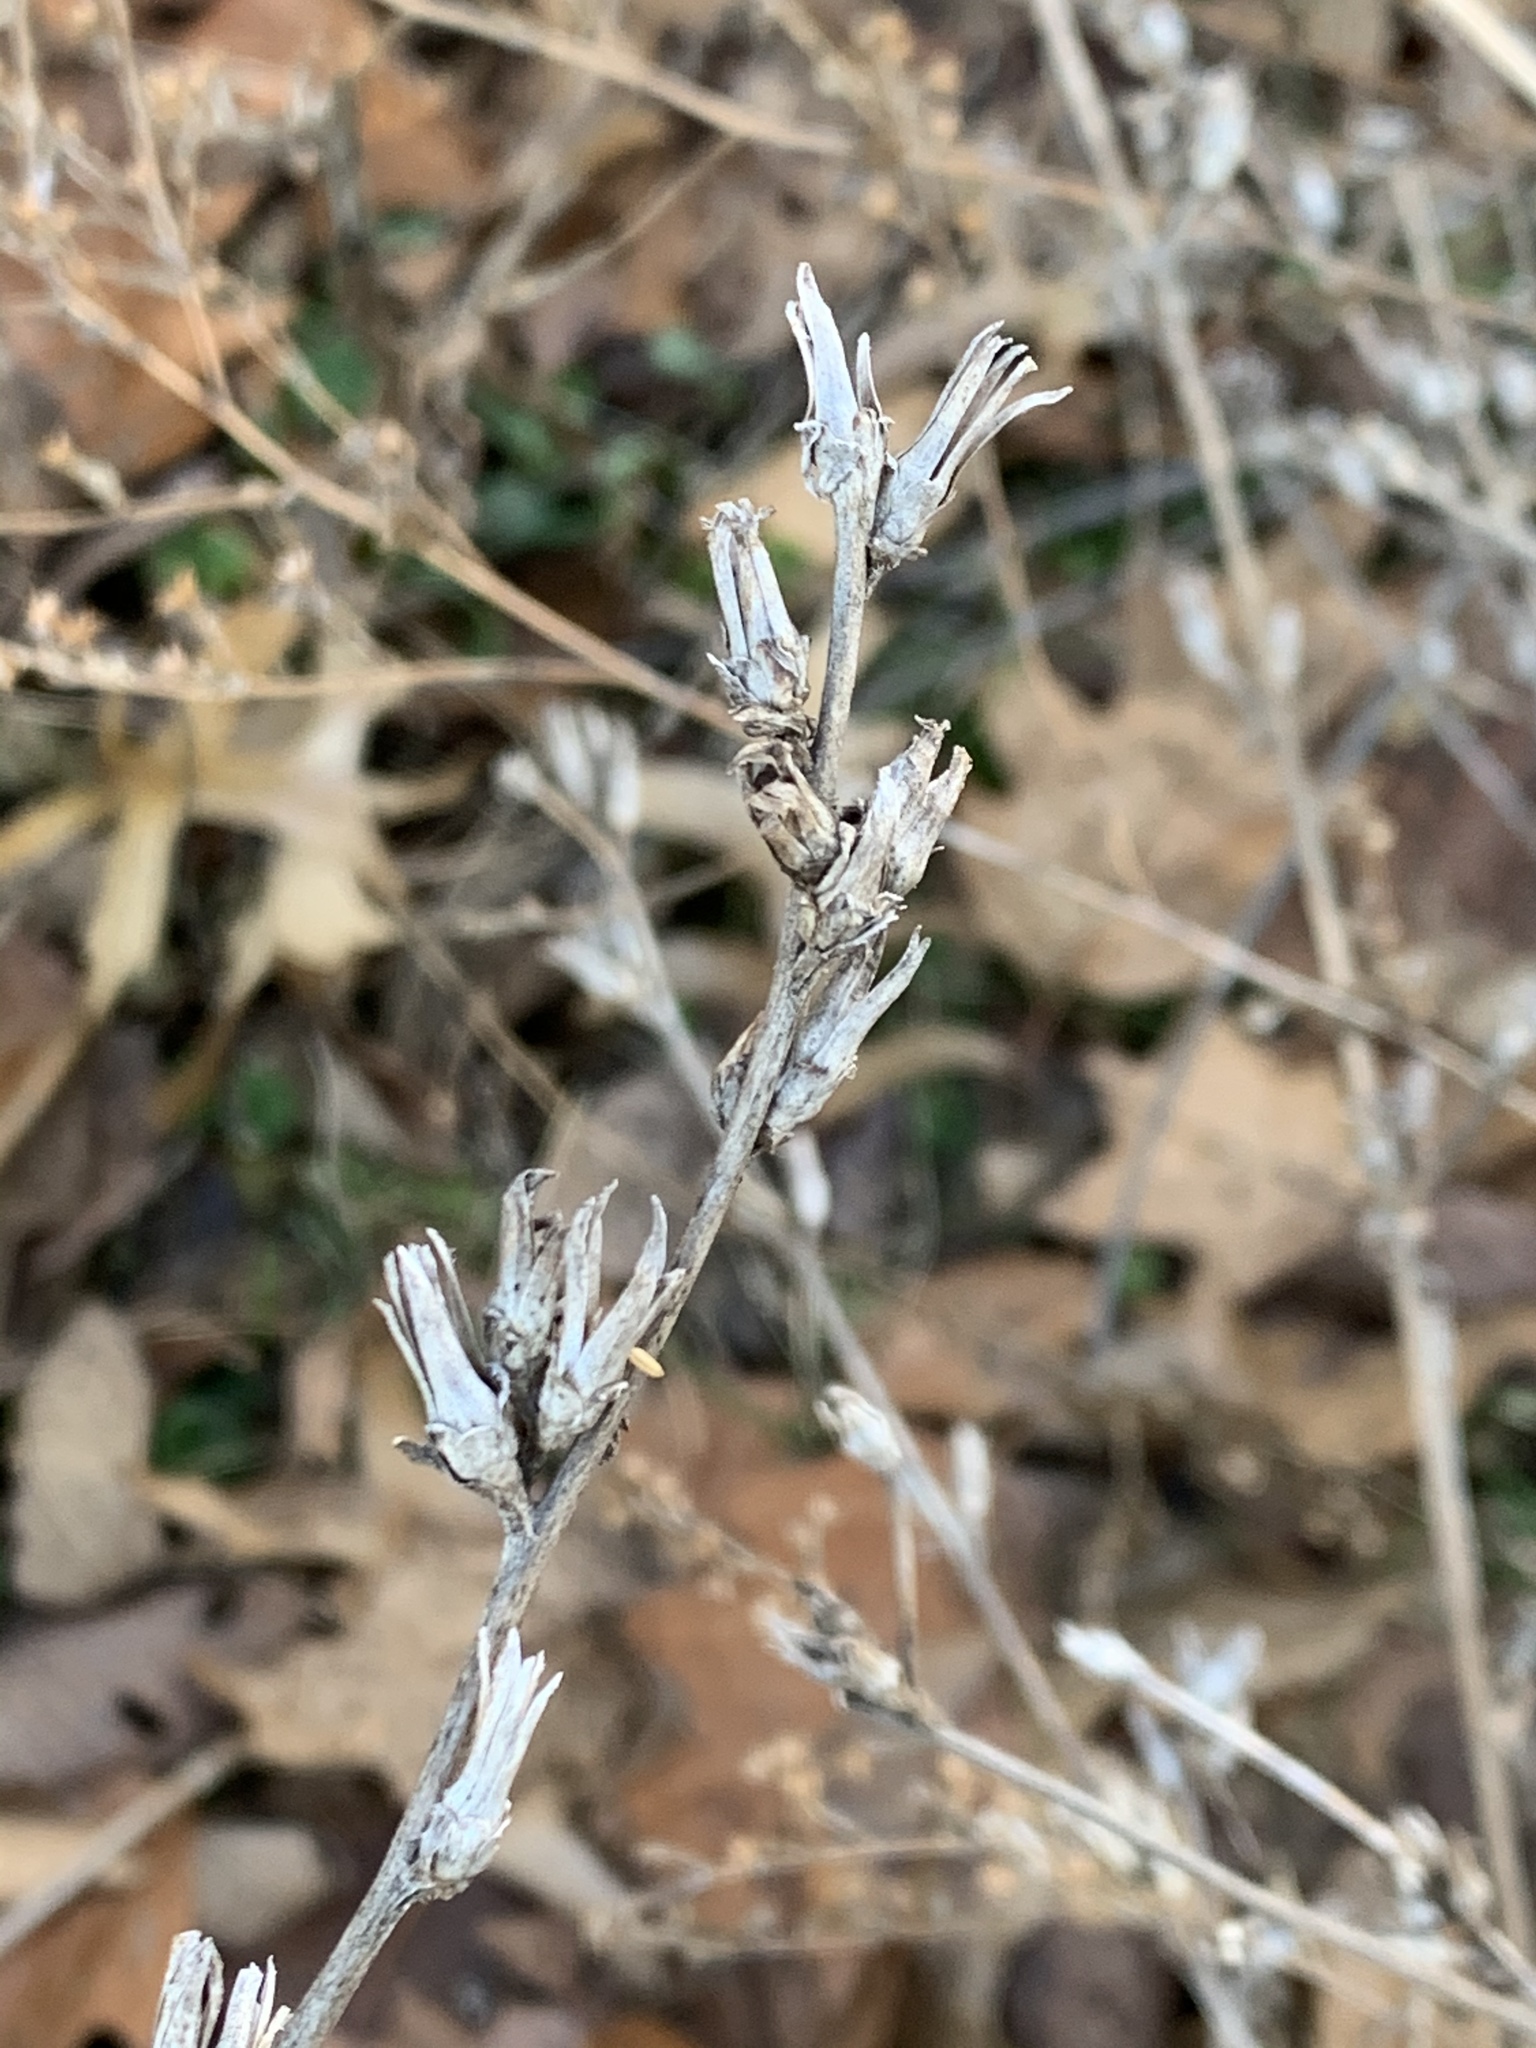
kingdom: Plantae
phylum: Tracheophyta
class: Magnoliopsida
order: Asterales
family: Asteraceae
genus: Cichorium
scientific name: Cichorium intybus
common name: Chicory
